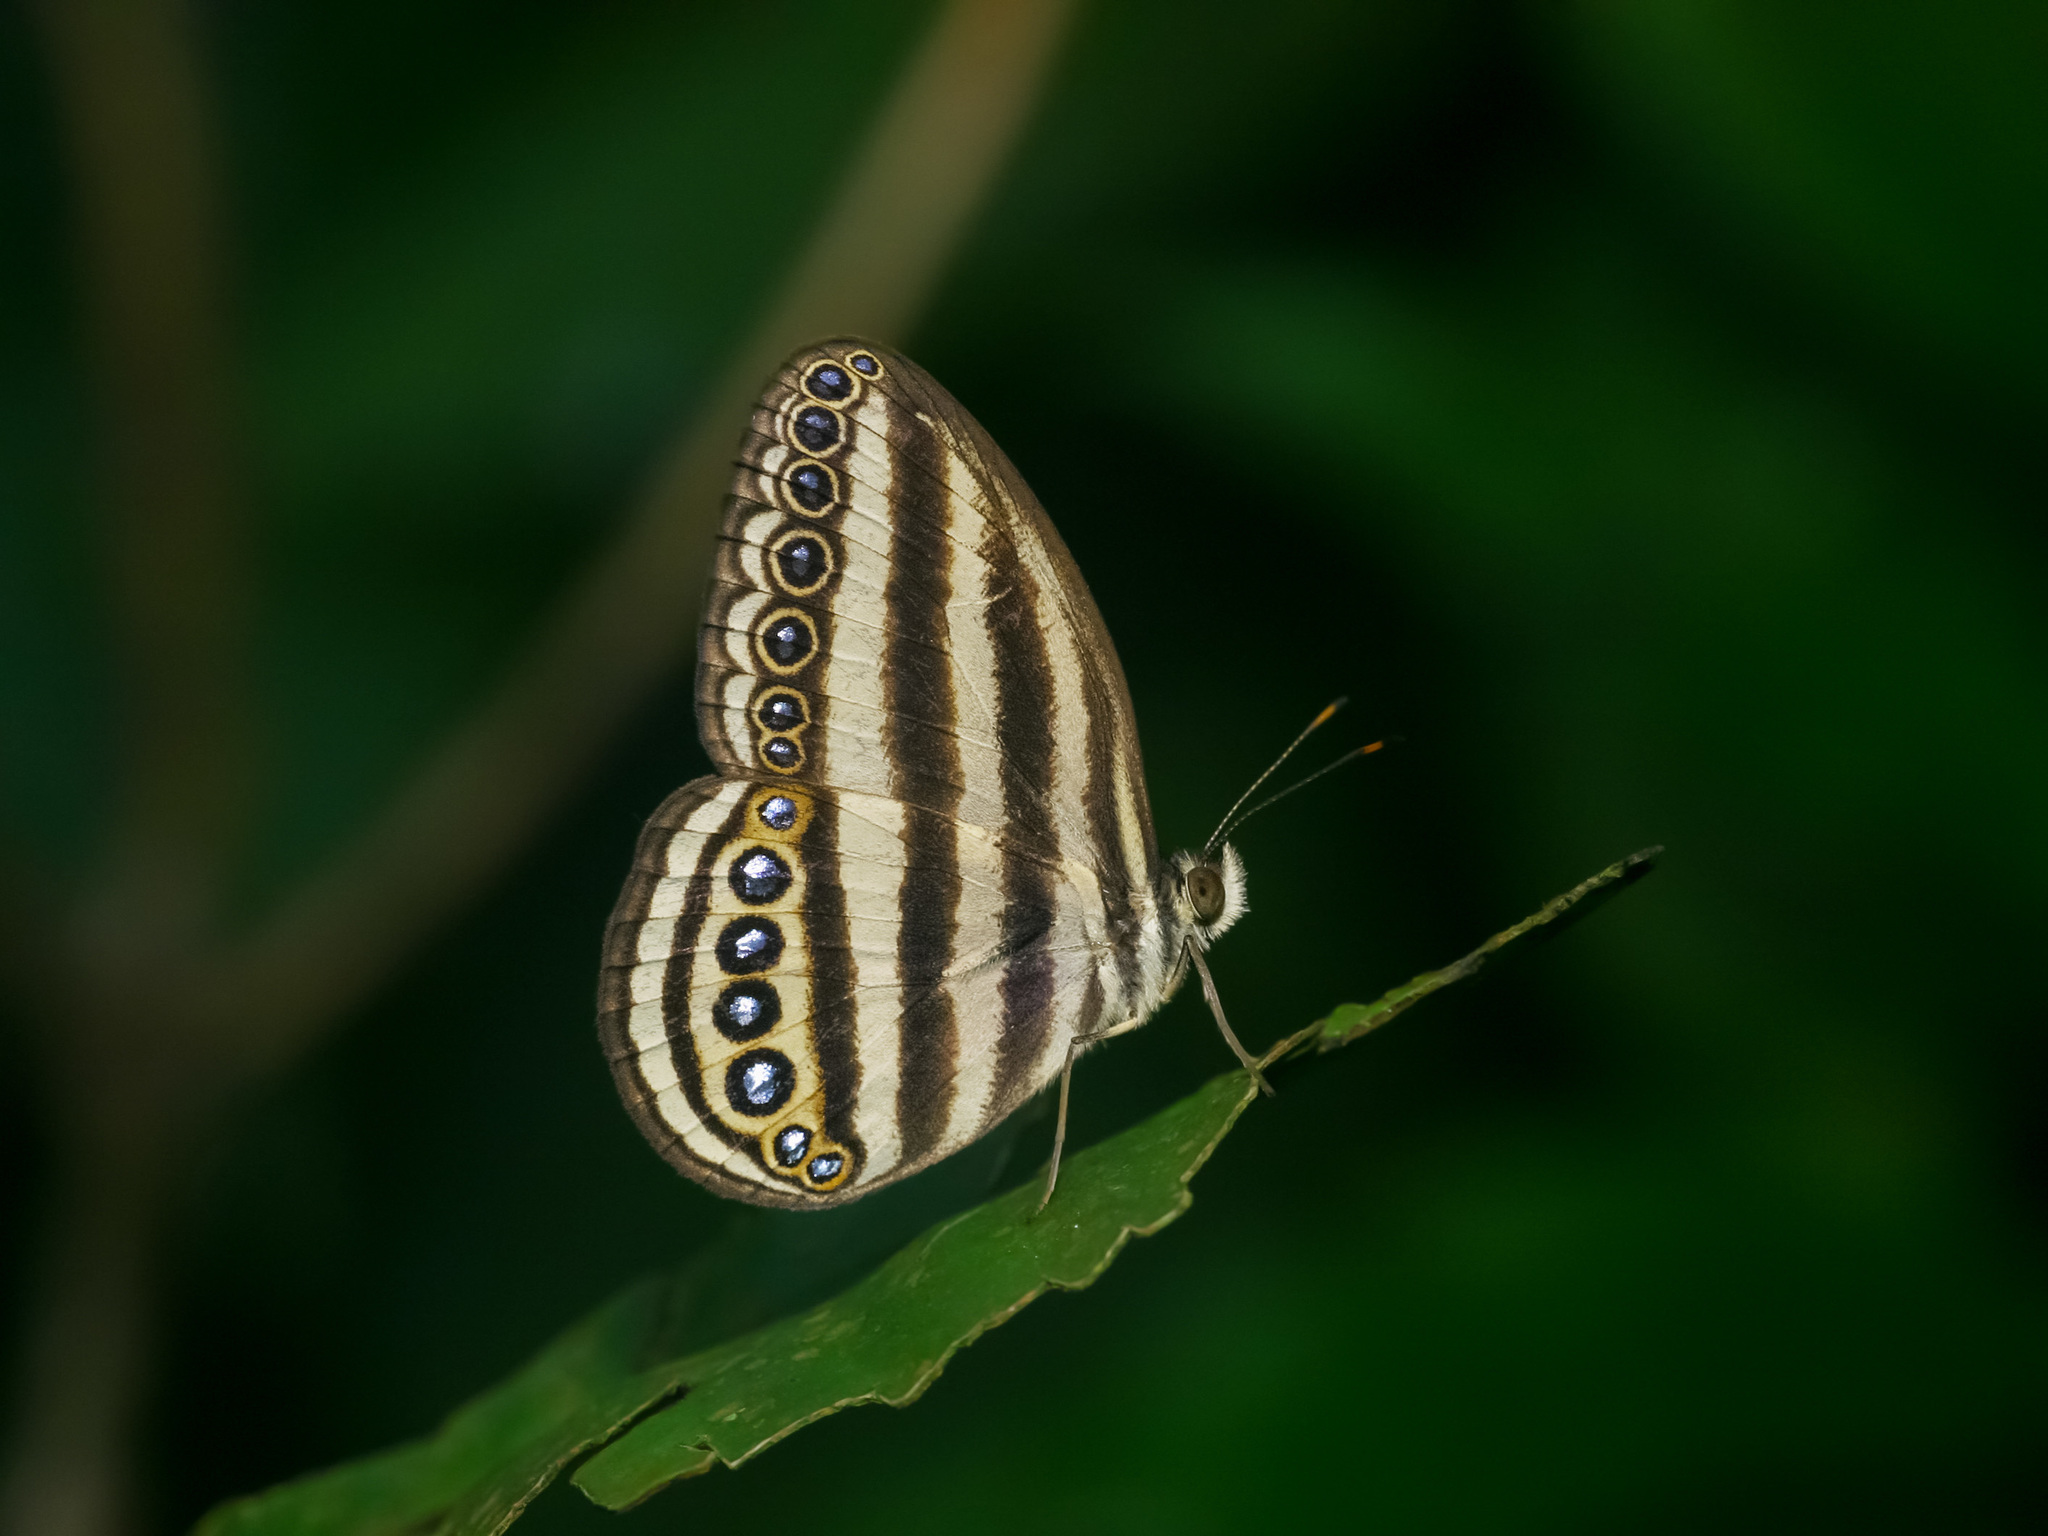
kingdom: Animalia
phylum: Arthropoda
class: Insecta
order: Lepidoptera
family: Nymphalidae
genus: Ragadia
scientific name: Ragadia makuta
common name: Striped ringlet
